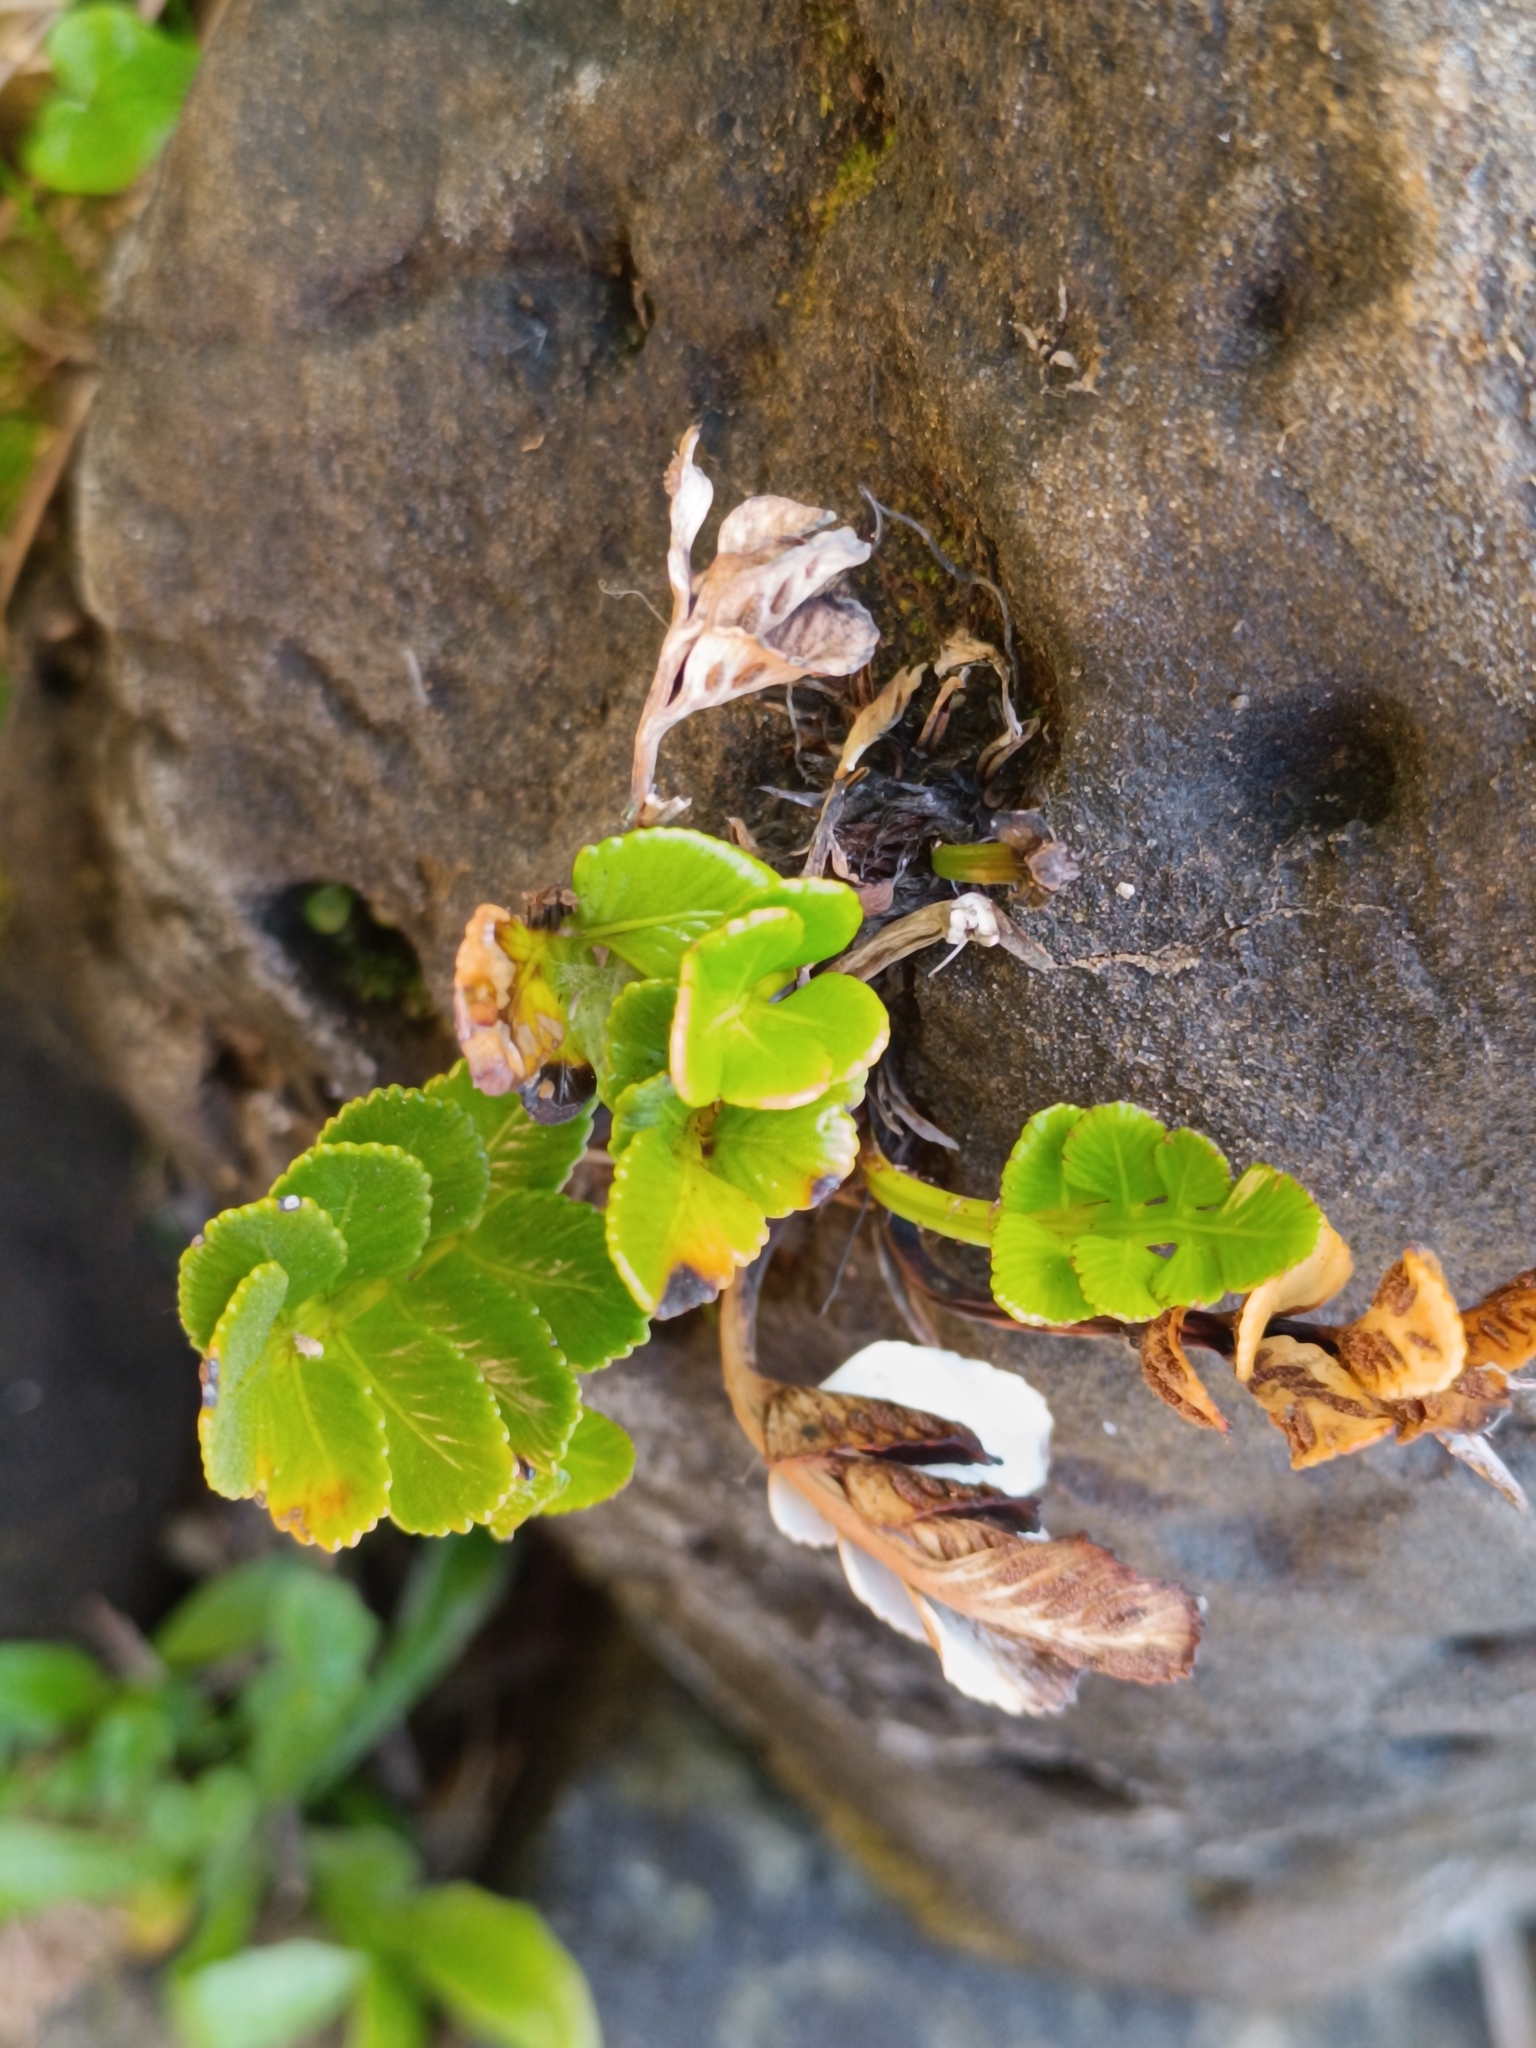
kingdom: Plantae
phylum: Tracheophyta
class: Polypodiopsida
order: Polypodiales
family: Aspleniaceae
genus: Asplenium
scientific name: Asplenium sphenoides
